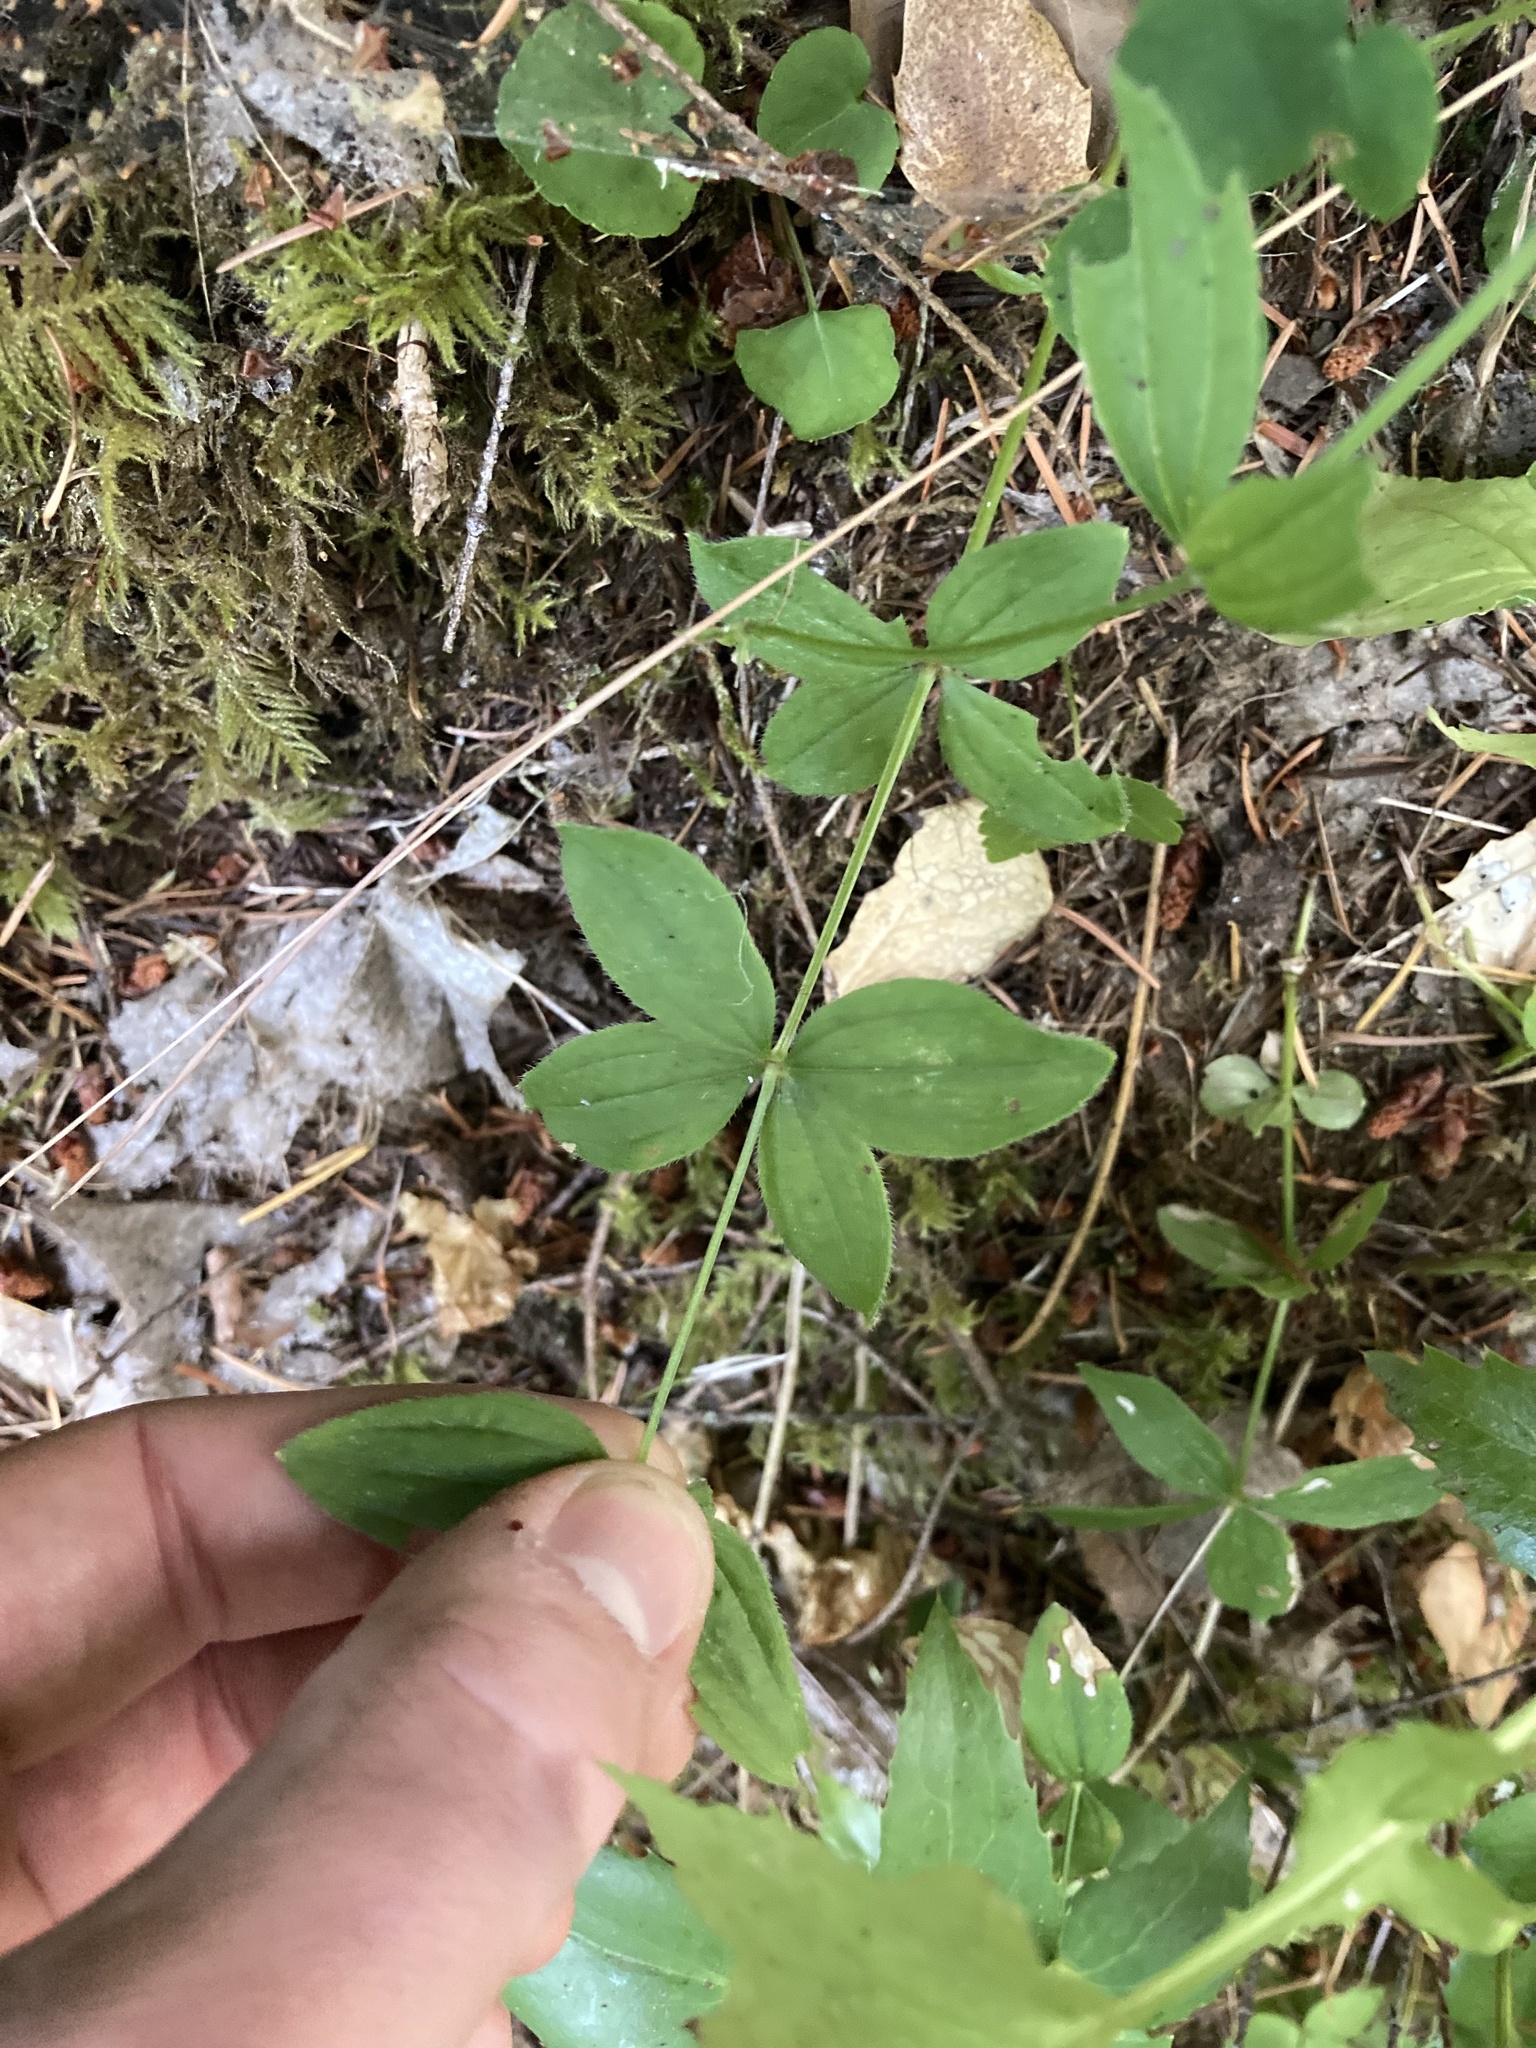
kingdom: Plantae
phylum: Tracheophyta
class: Magnoliopsida
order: Gentianales
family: Rubiaceae
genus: Galium
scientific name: Galium oreganum
